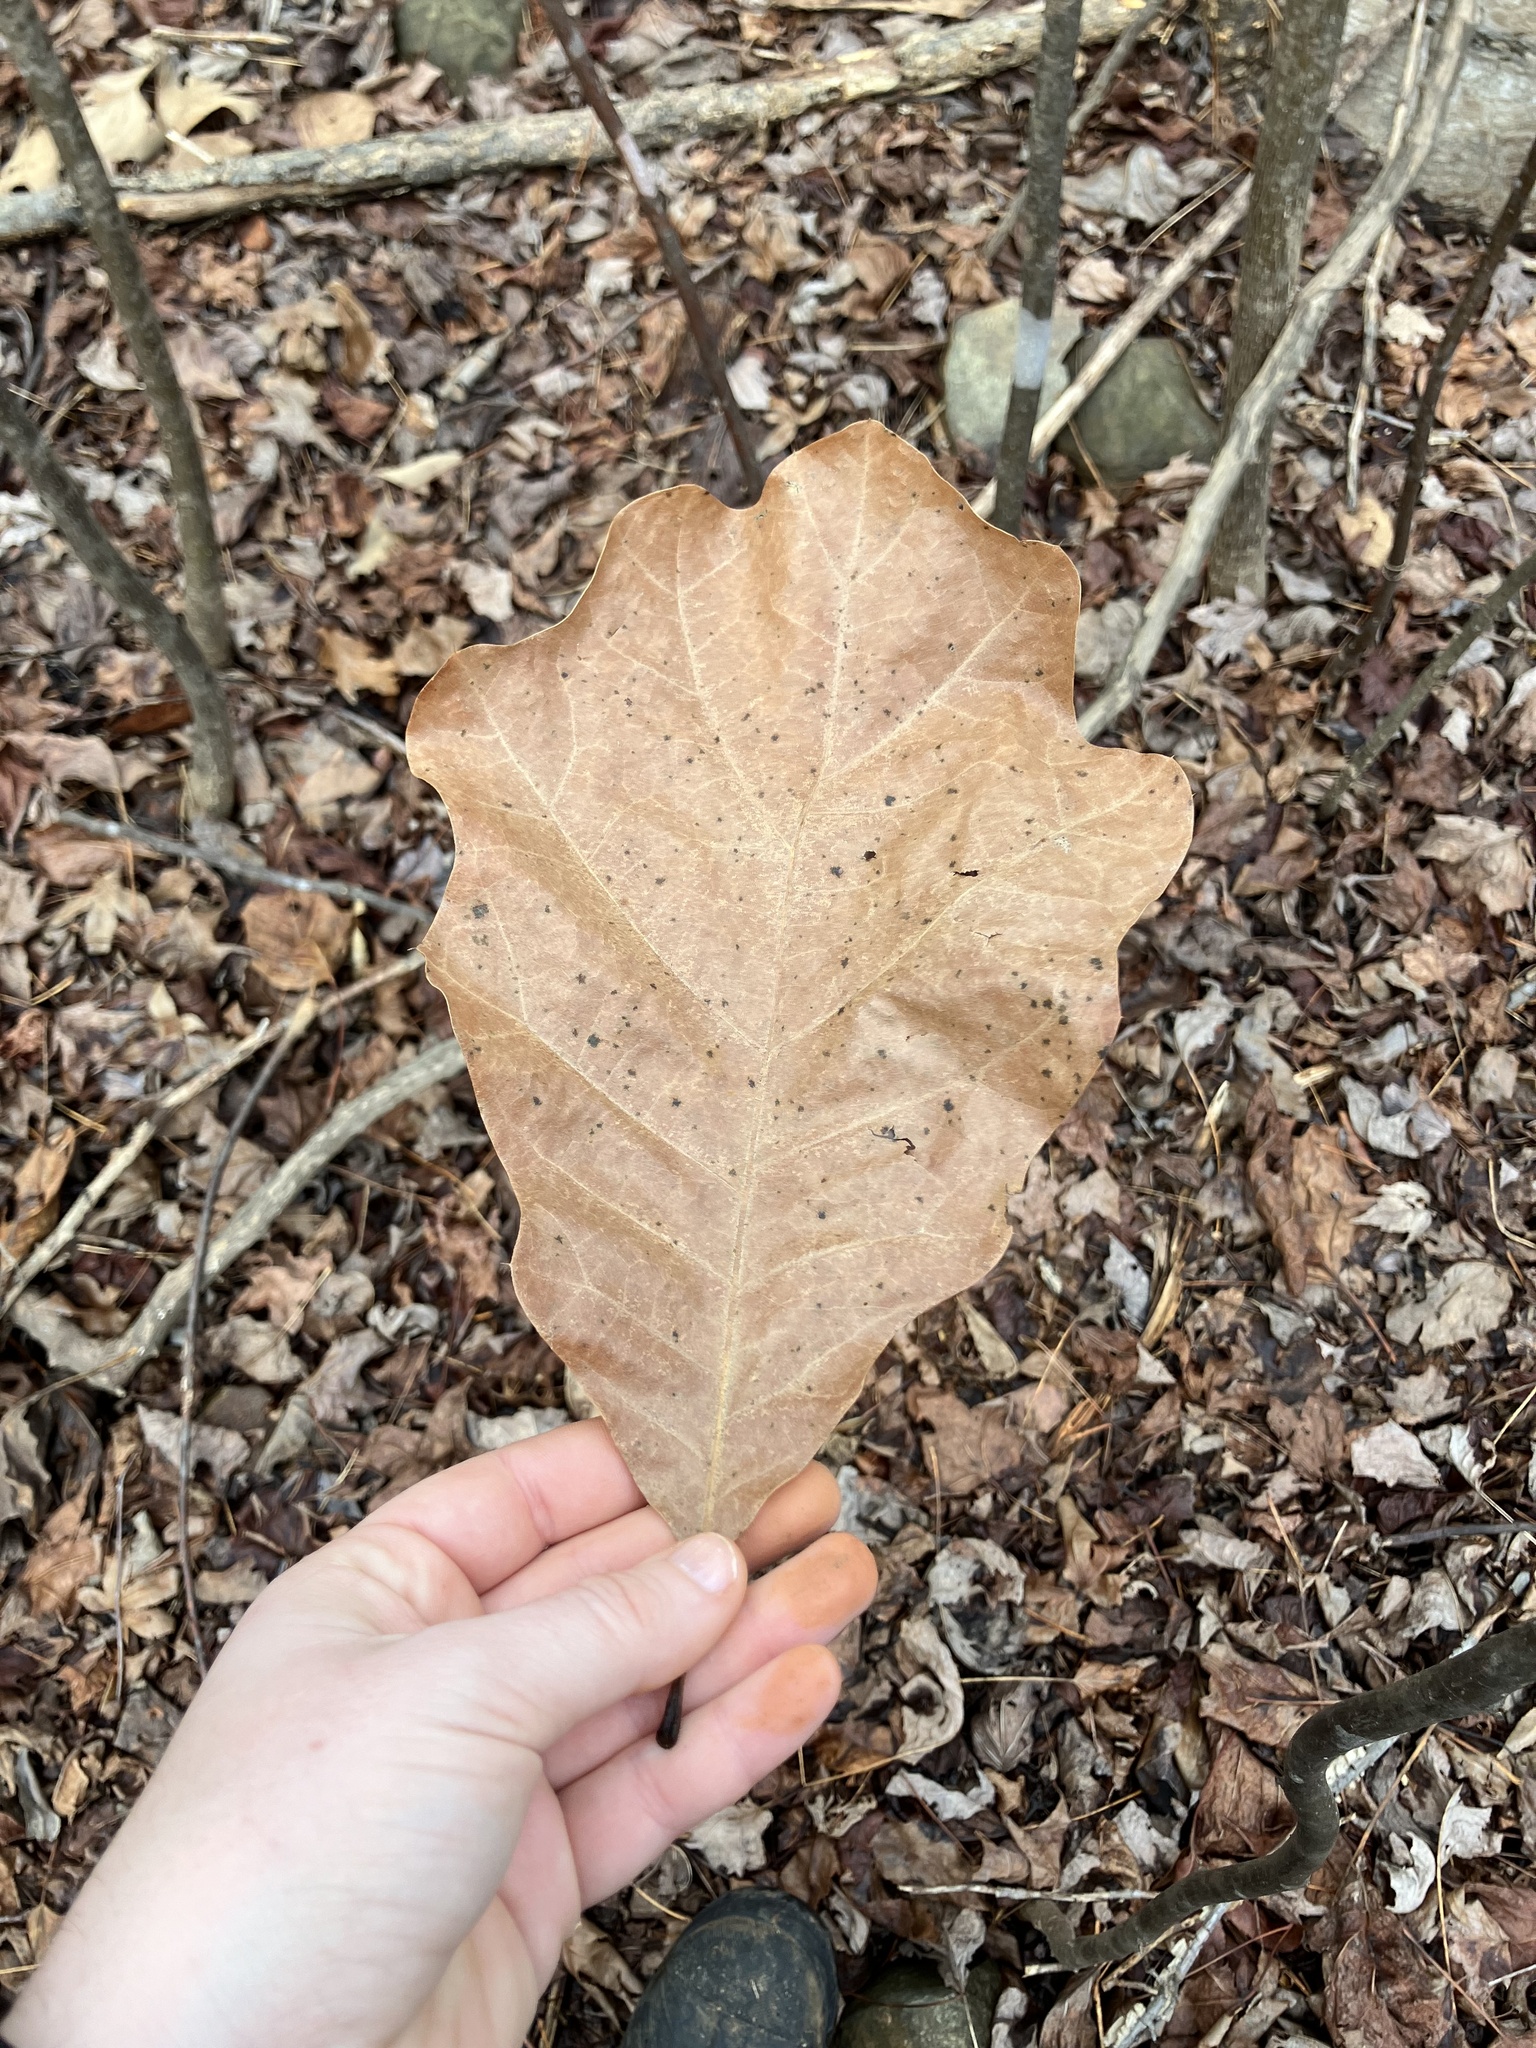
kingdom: Plantae
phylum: Tracheophyta
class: Magnoliopsida
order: Fagales
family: Fagaceae
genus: Quercus
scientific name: Quercus velutina
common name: Black oak
